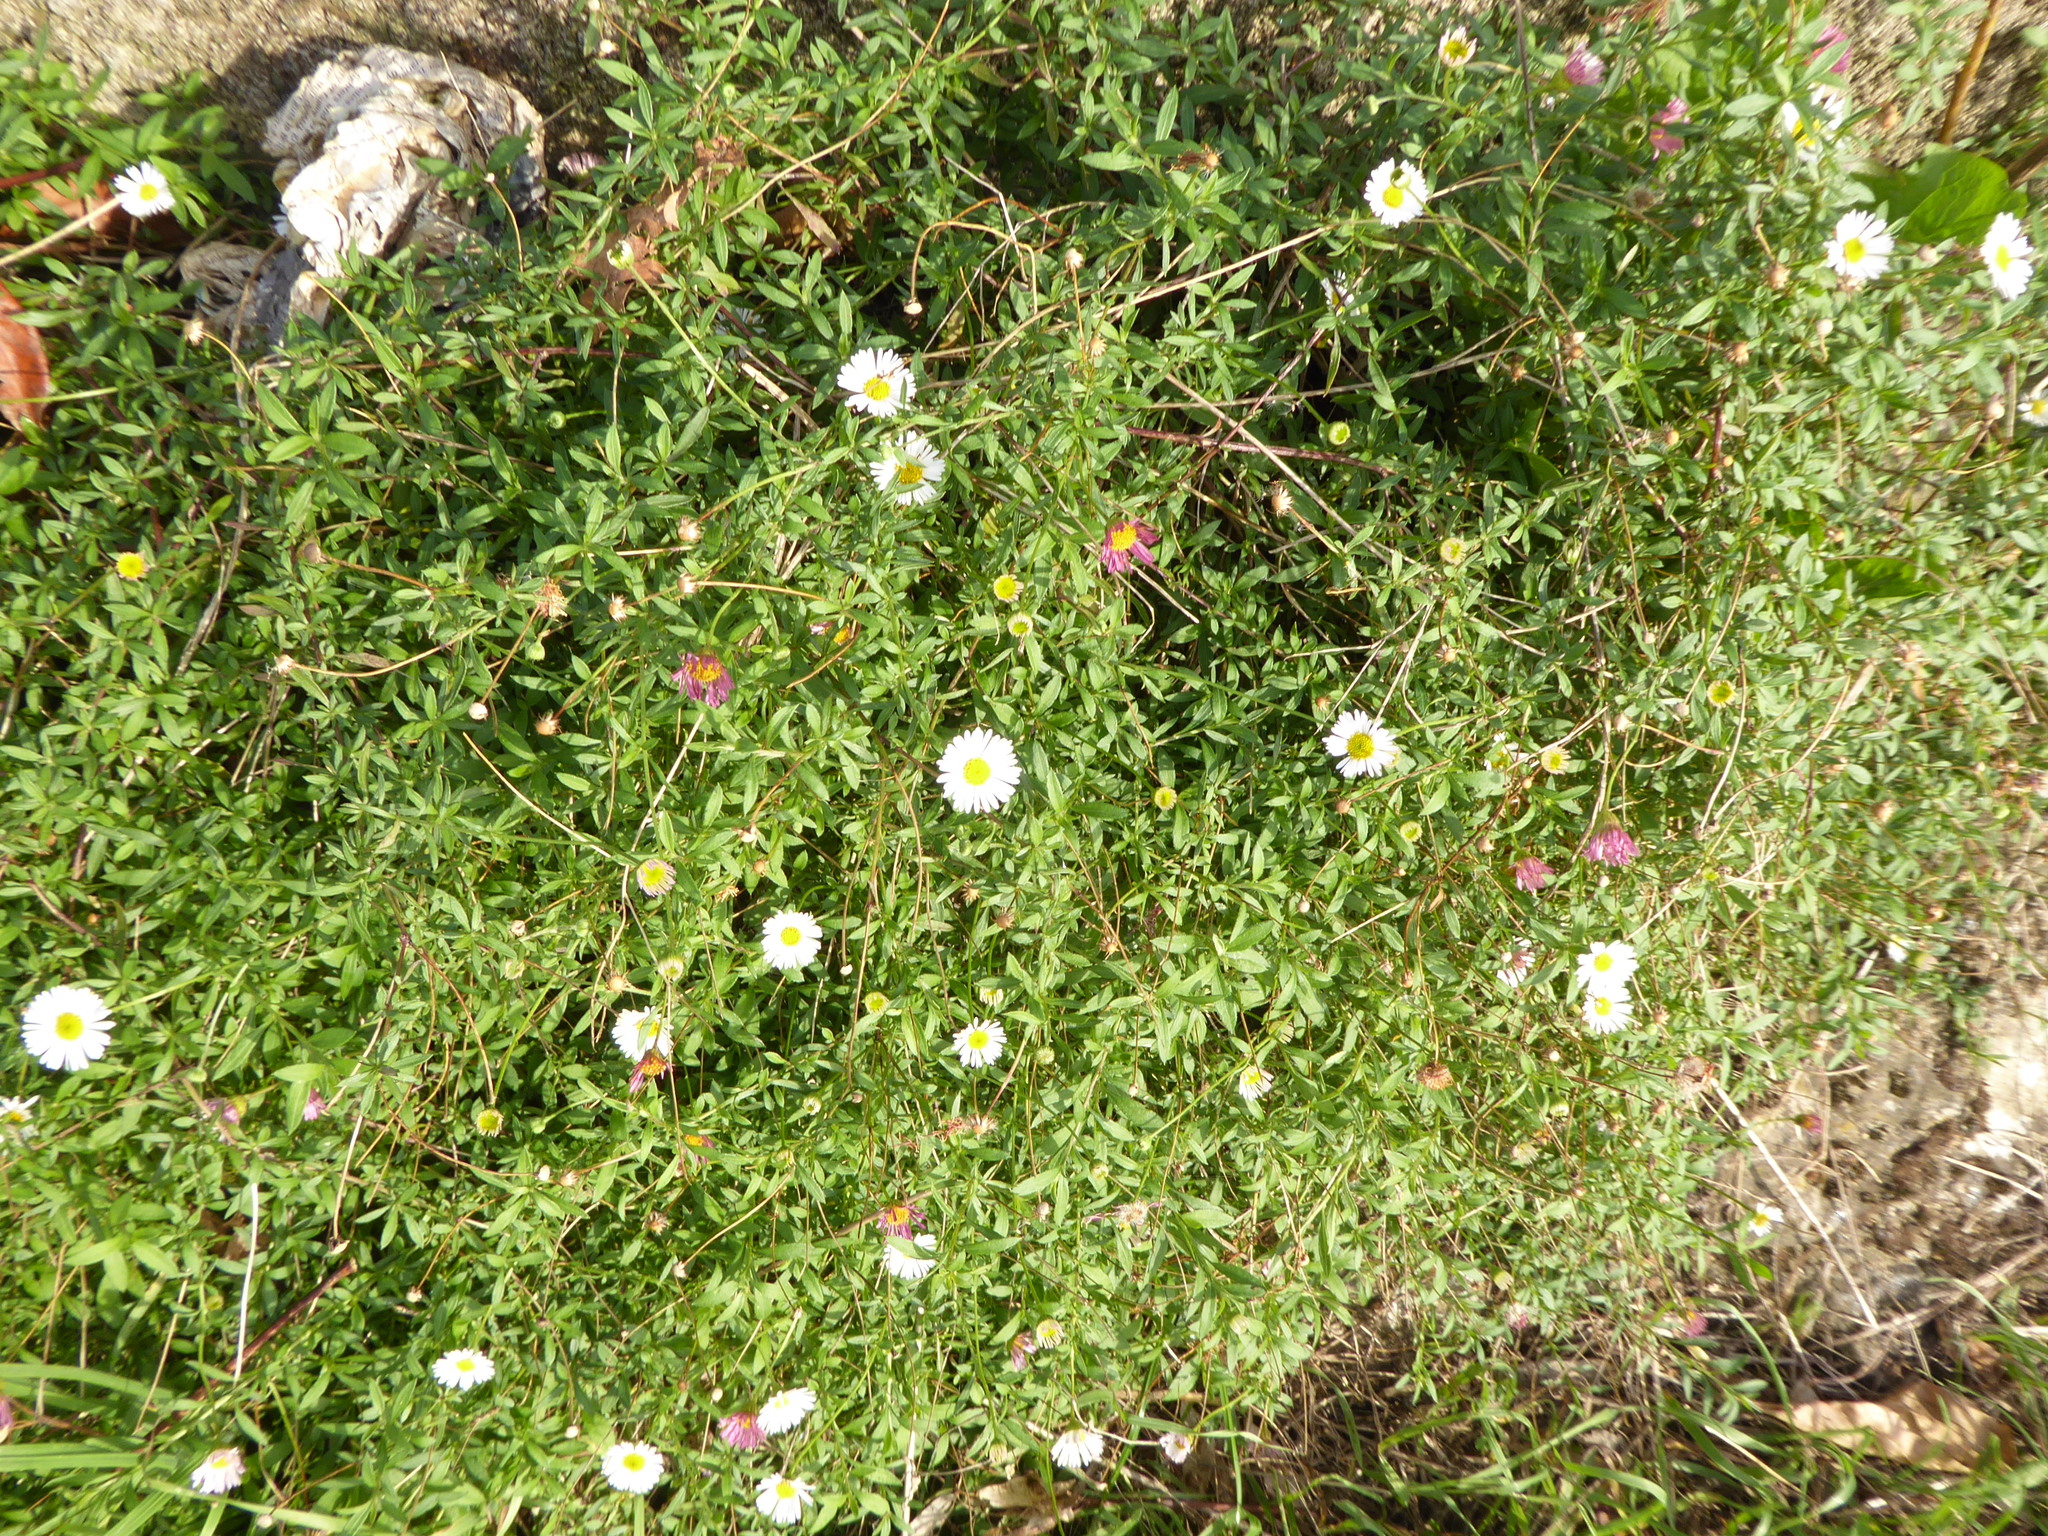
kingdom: Plantae
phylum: Tracheophyta
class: Magnoliopsida
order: Asterales
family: Asteraceae
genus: Erigeron
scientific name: Erigeron karvinskianus
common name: Mexican fleabane
